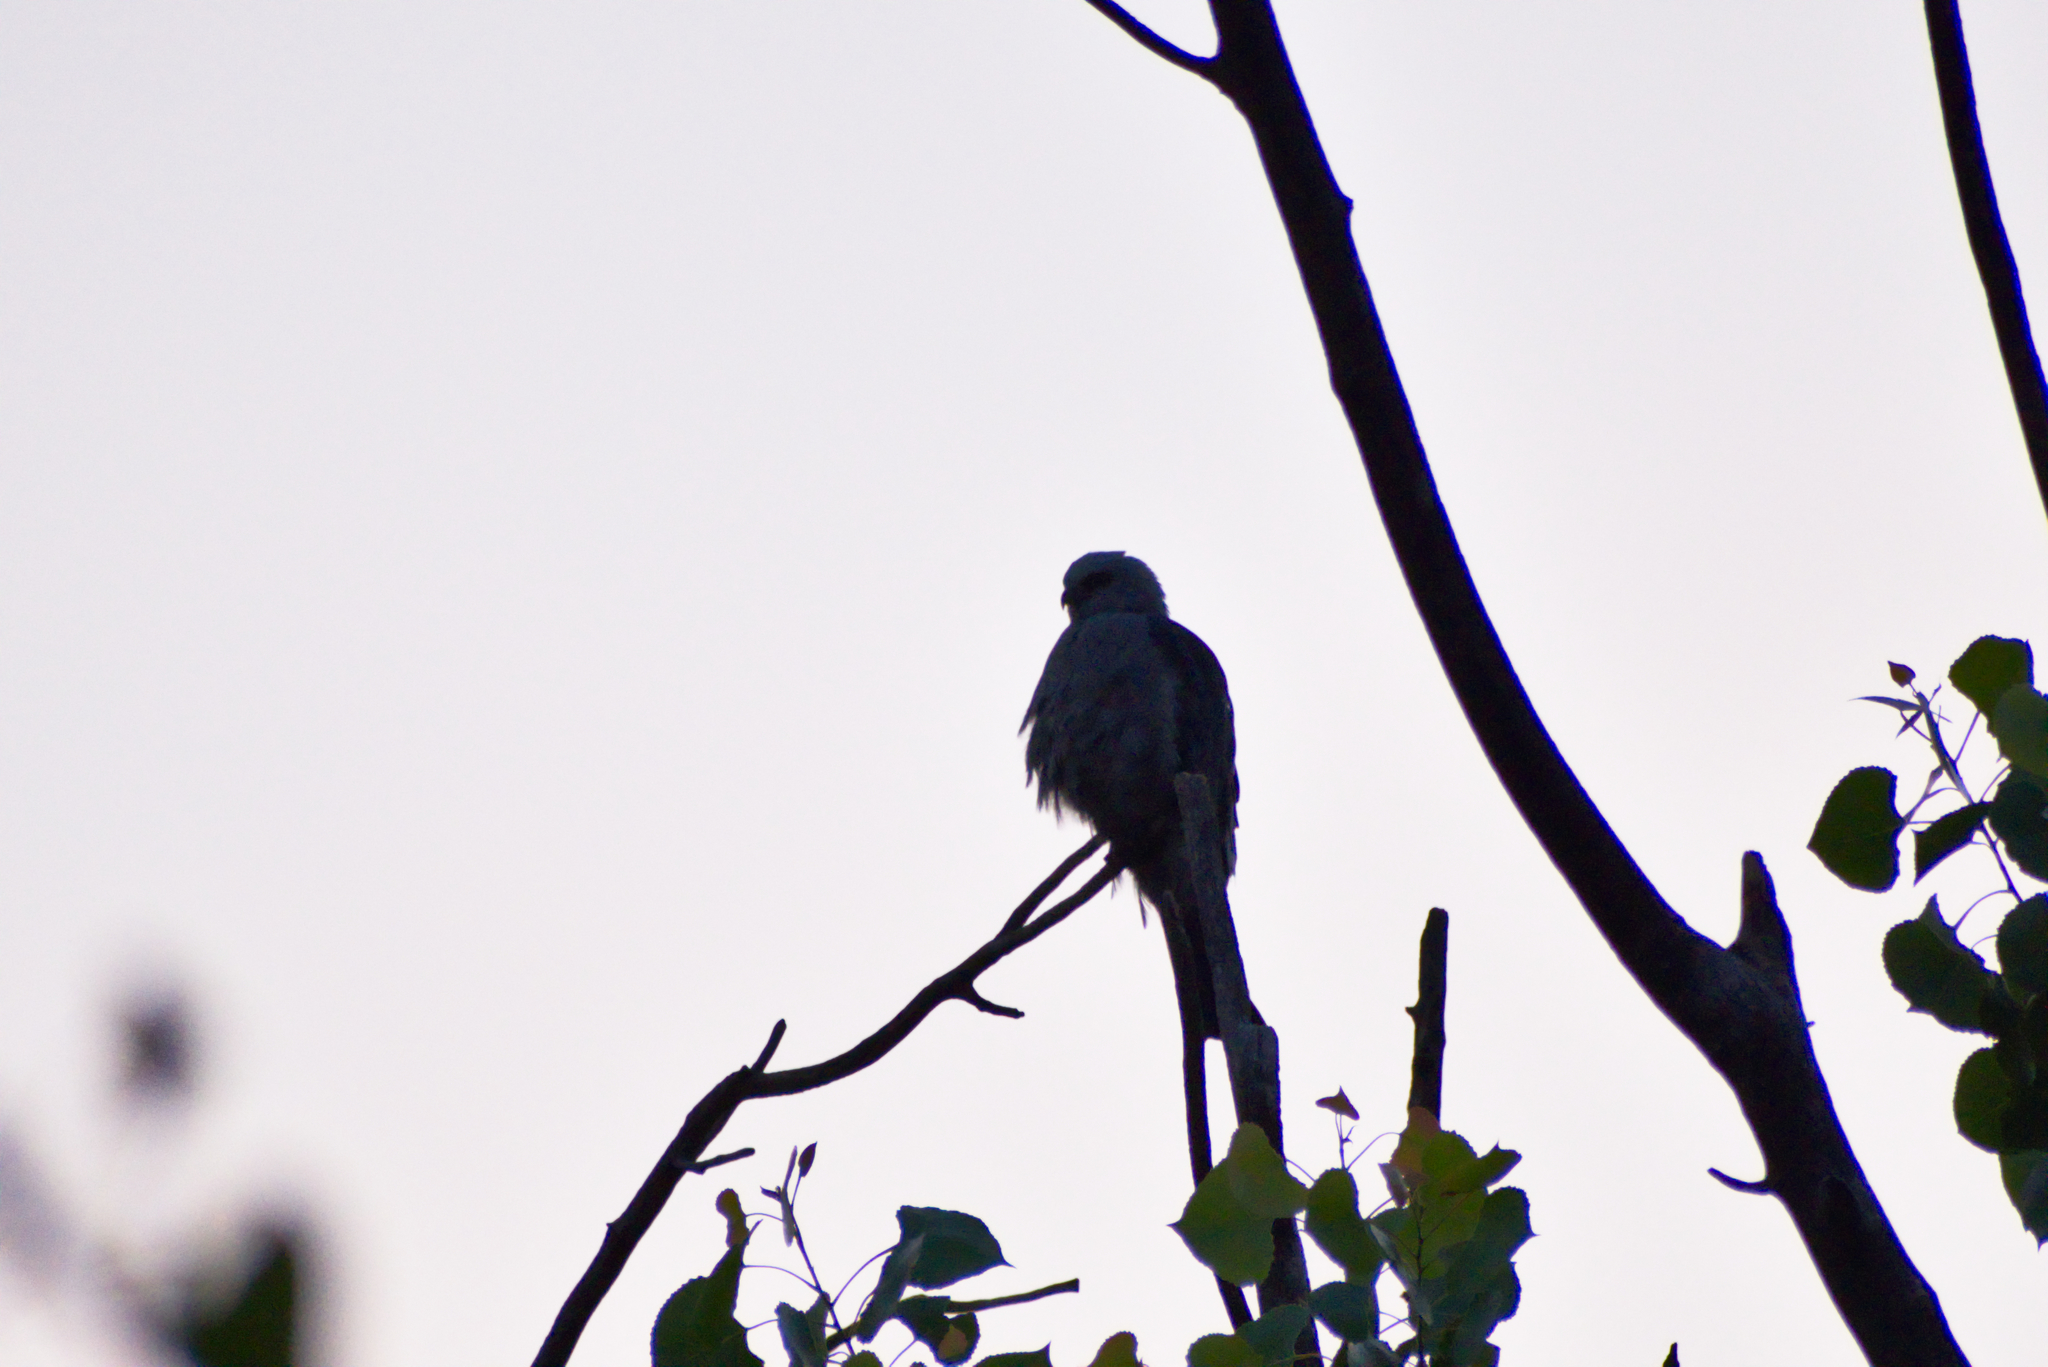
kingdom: Animalia
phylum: Chordata
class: Aves
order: Accipitriformes
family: Accipitridae
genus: Ictinia
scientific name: Ictinia mississippiensis
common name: Mississippi kite
